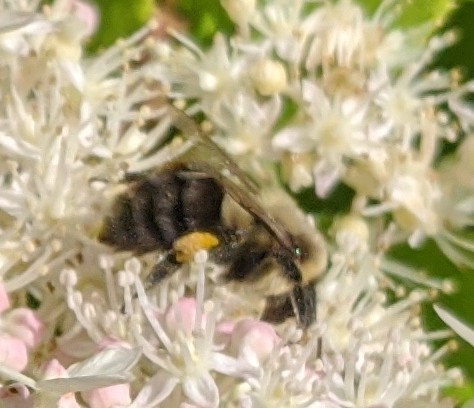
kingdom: Animalia
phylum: Arthropoda
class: Insecta
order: Hymenoptera
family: Apidae
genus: Bombus
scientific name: Bombus impatiens
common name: Common eastern bumble bee
